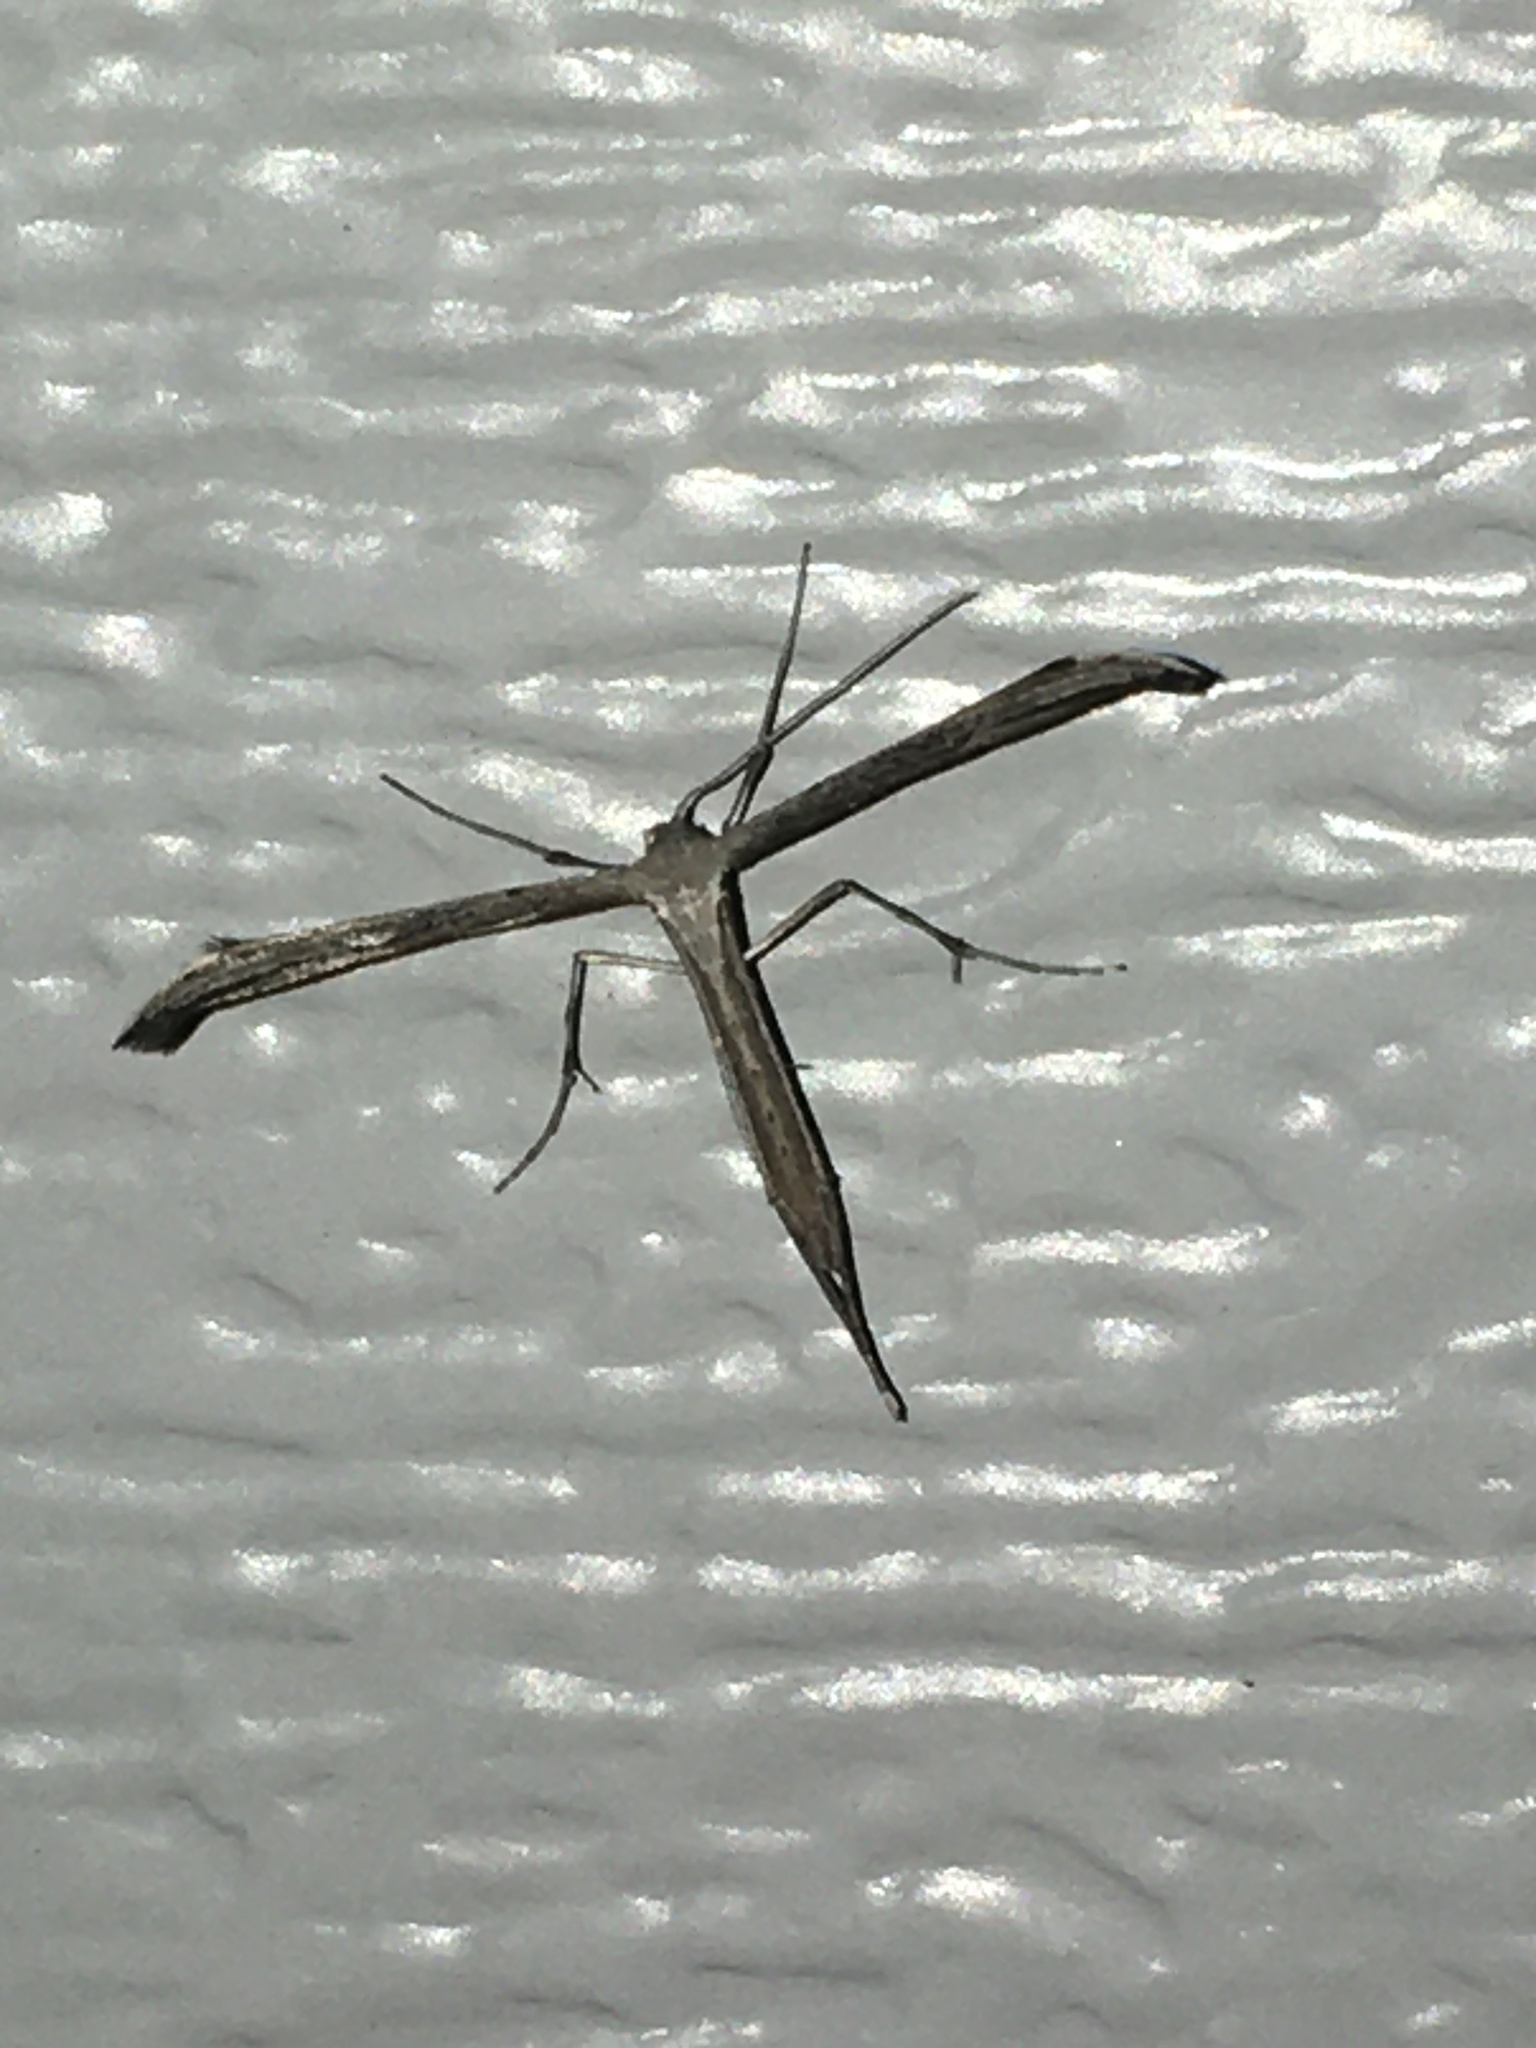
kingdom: Animalia
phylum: Arthropoda
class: Insecta
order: Lepidoptera
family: Pterophoridae
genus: Emmelina
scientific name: Emmelina monodactyla
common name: Common plume
